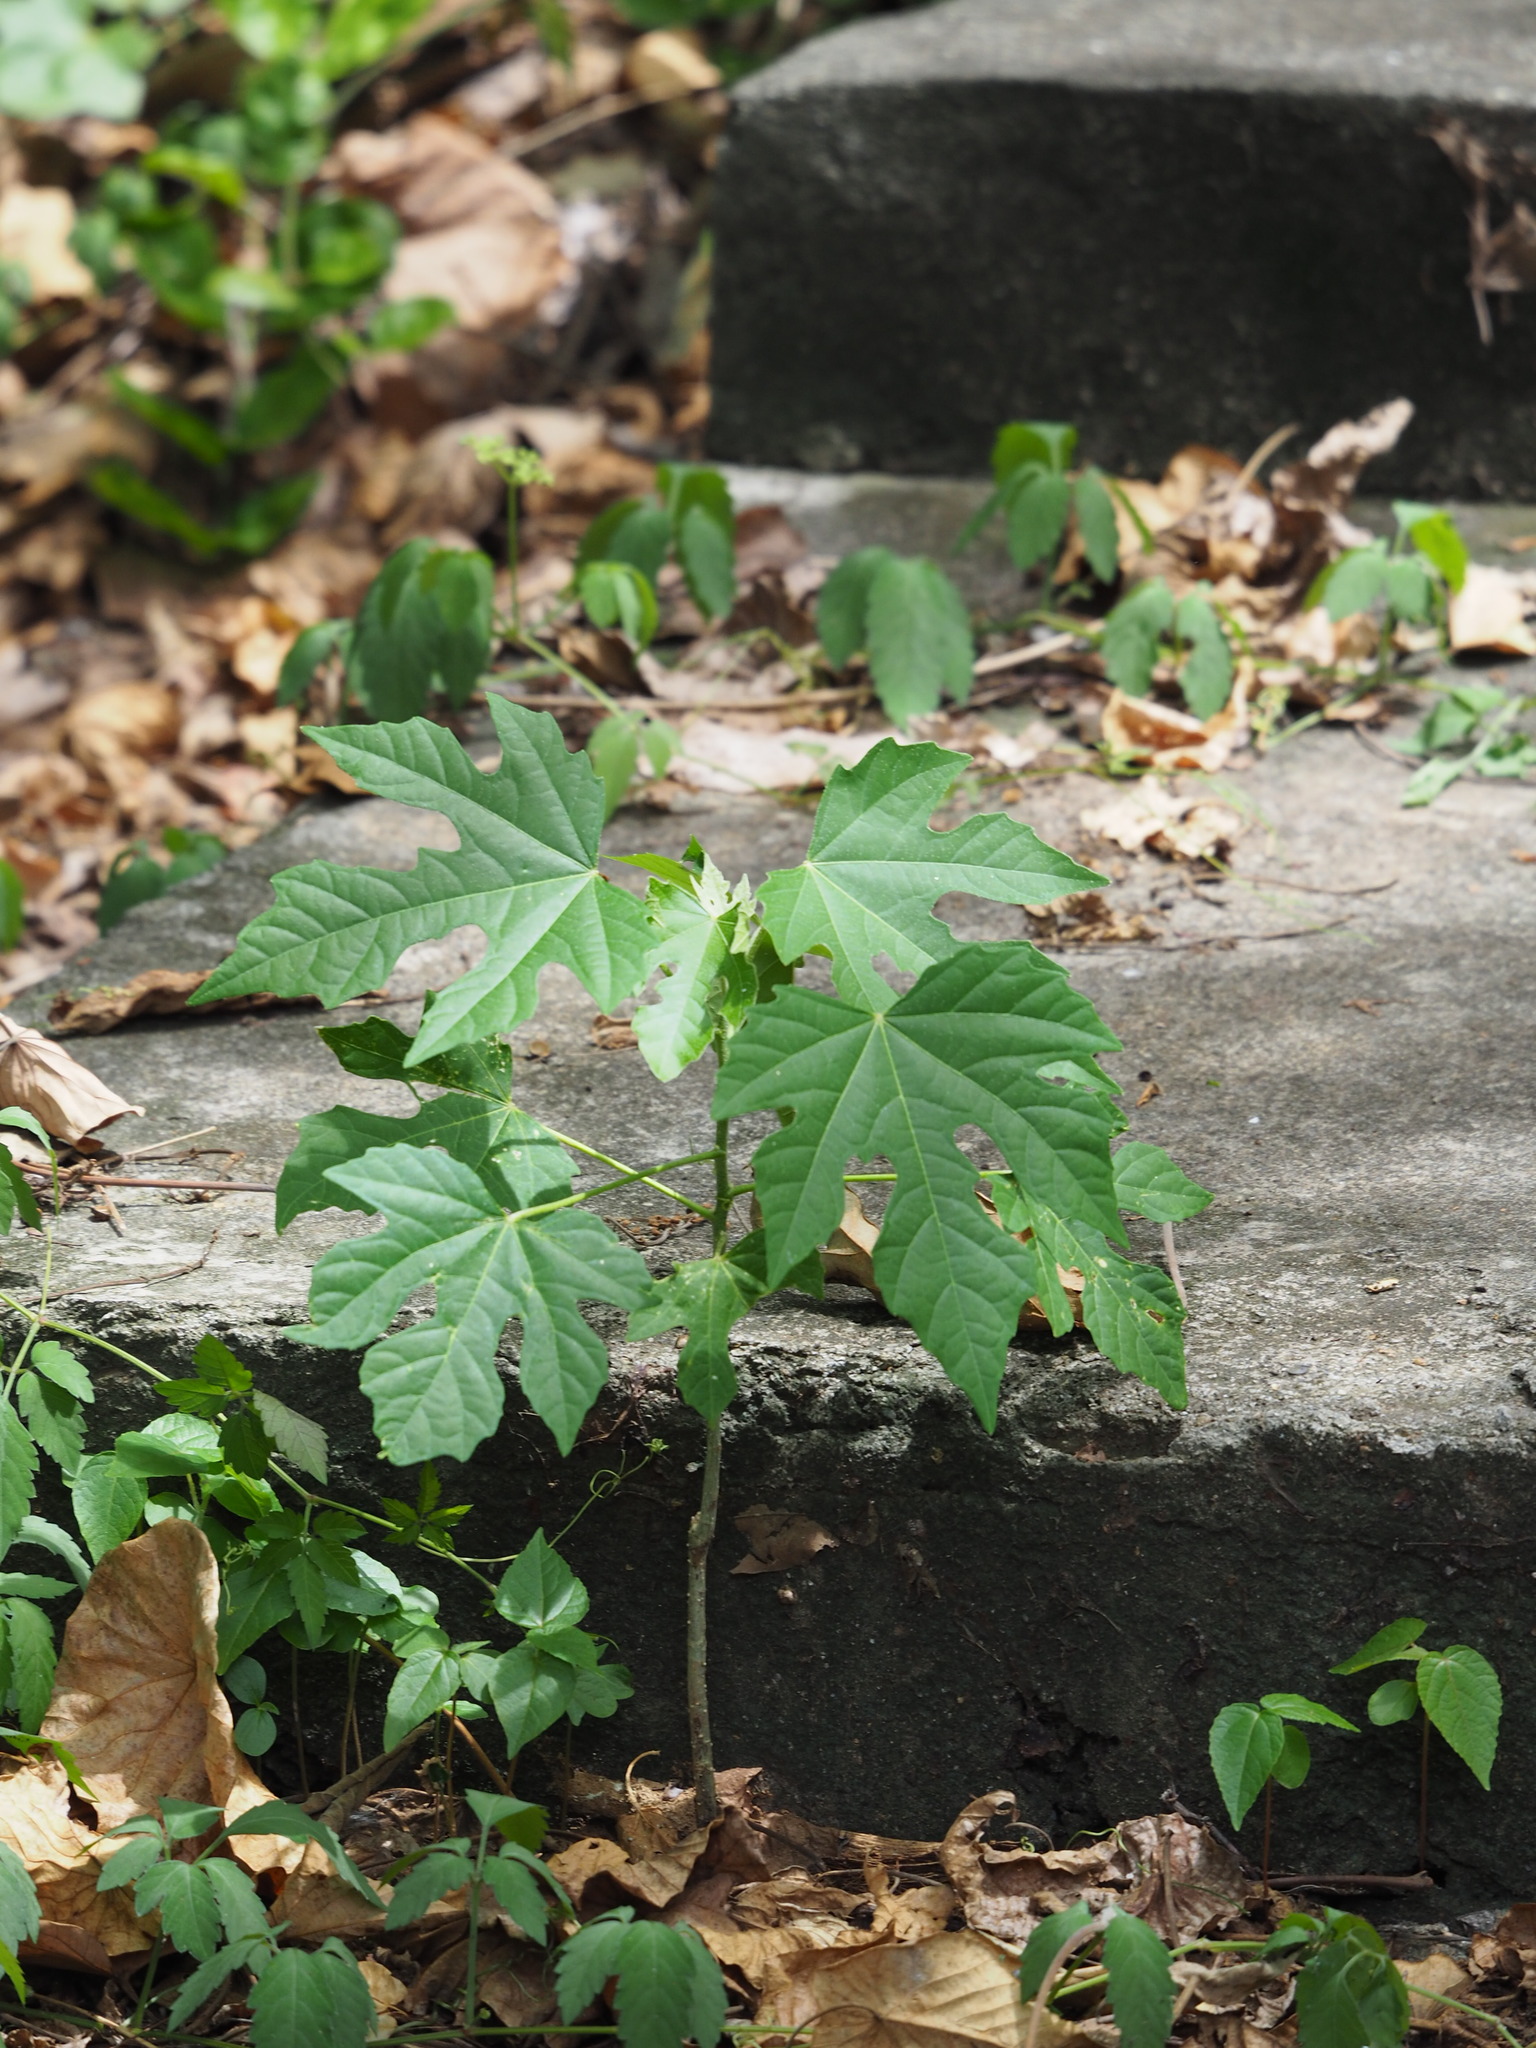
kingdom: Plantae
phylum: Tracheophyta
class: Magnoliopsida
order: Malpighiales
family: Euphorbiaceae
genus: Melanolepis
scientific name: Melanolepis multiglandulosa
